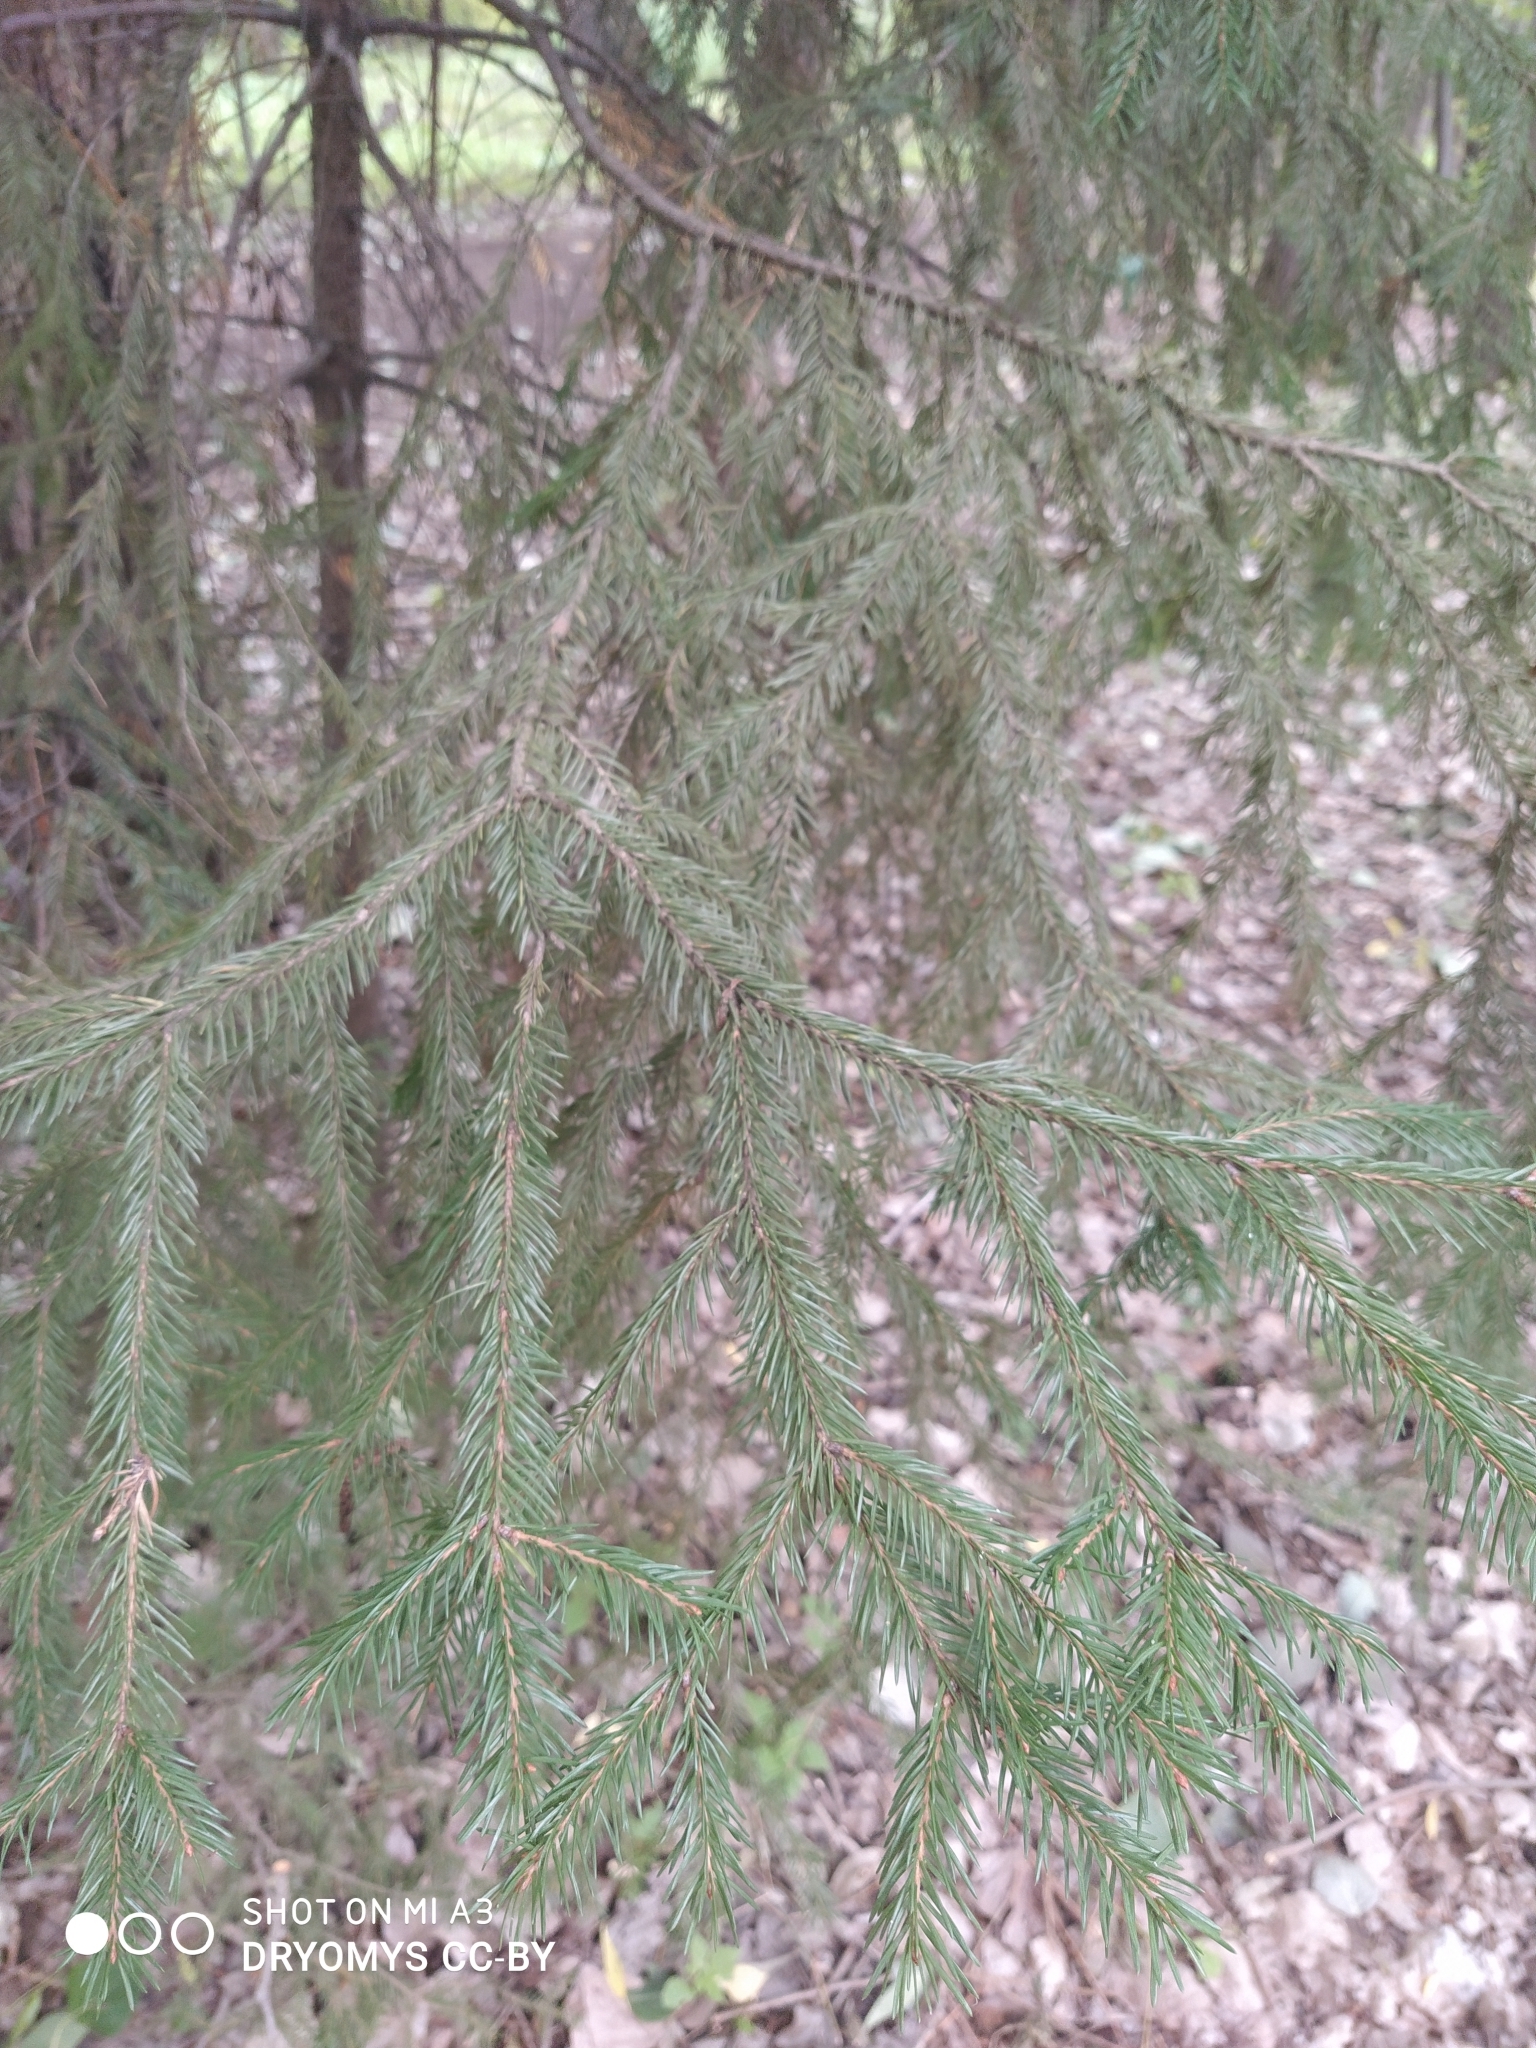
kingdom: Plantae
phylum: Tracheophyta
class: Pinopsida
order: Pinales
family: Pinaceae
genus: Picea
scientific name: Picea obovata
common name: Siberian spruce
